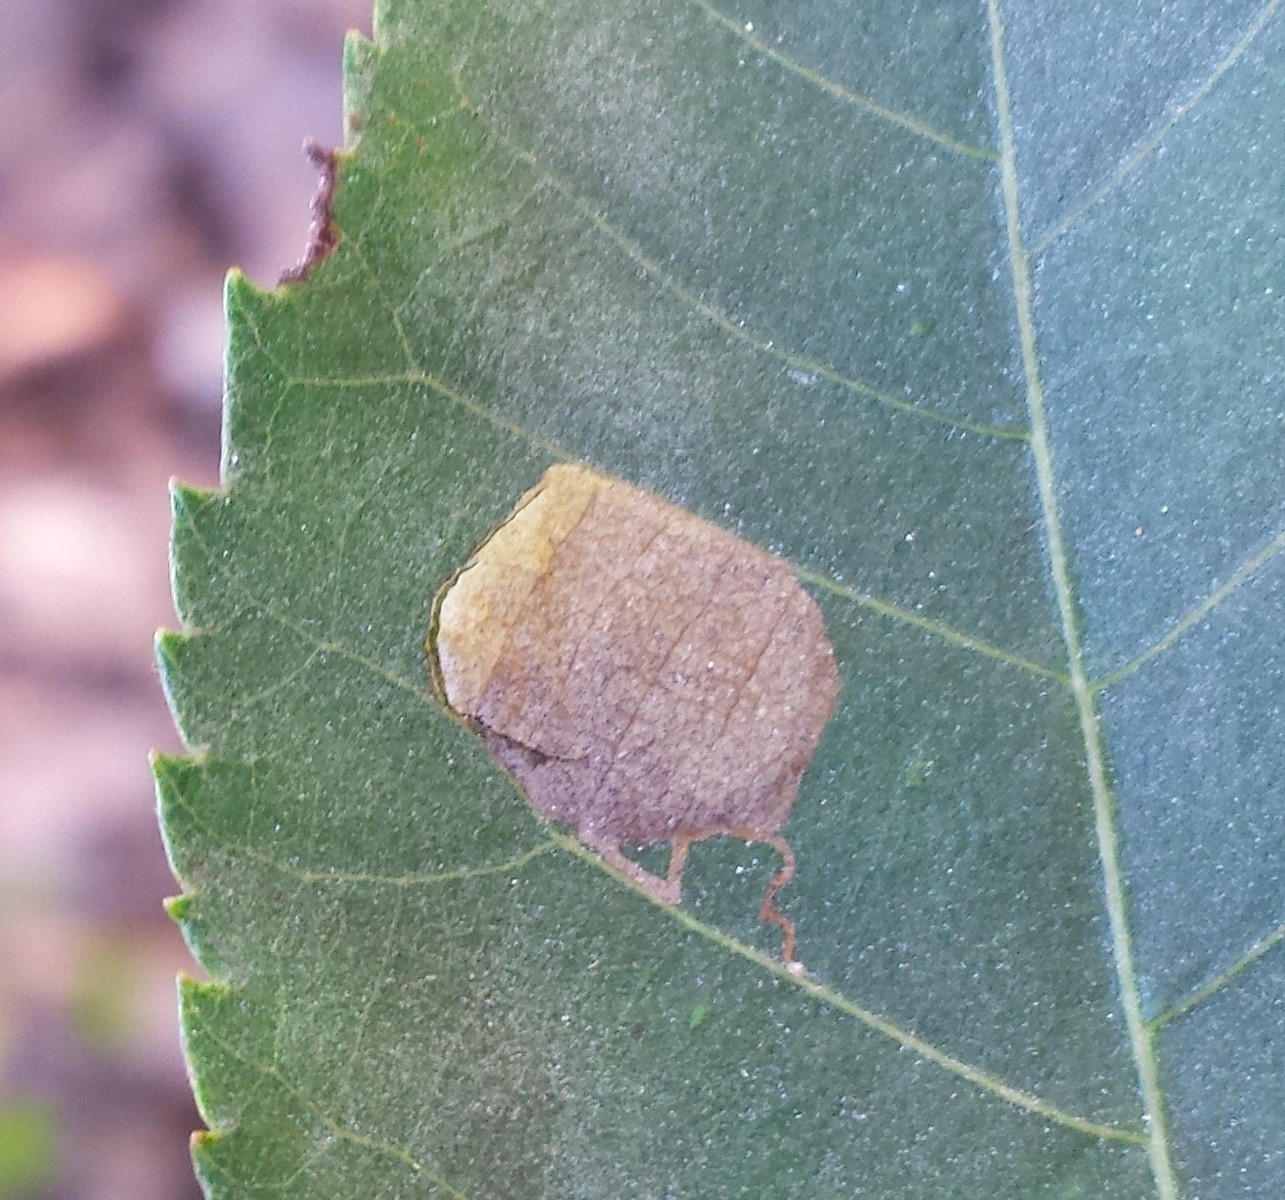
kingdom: Animalia
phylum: Arthropoda
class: Insecta
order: Lepidoptera
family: Nepticulidae
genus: Ectoedemia
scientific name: Ectoedemia trinotata
